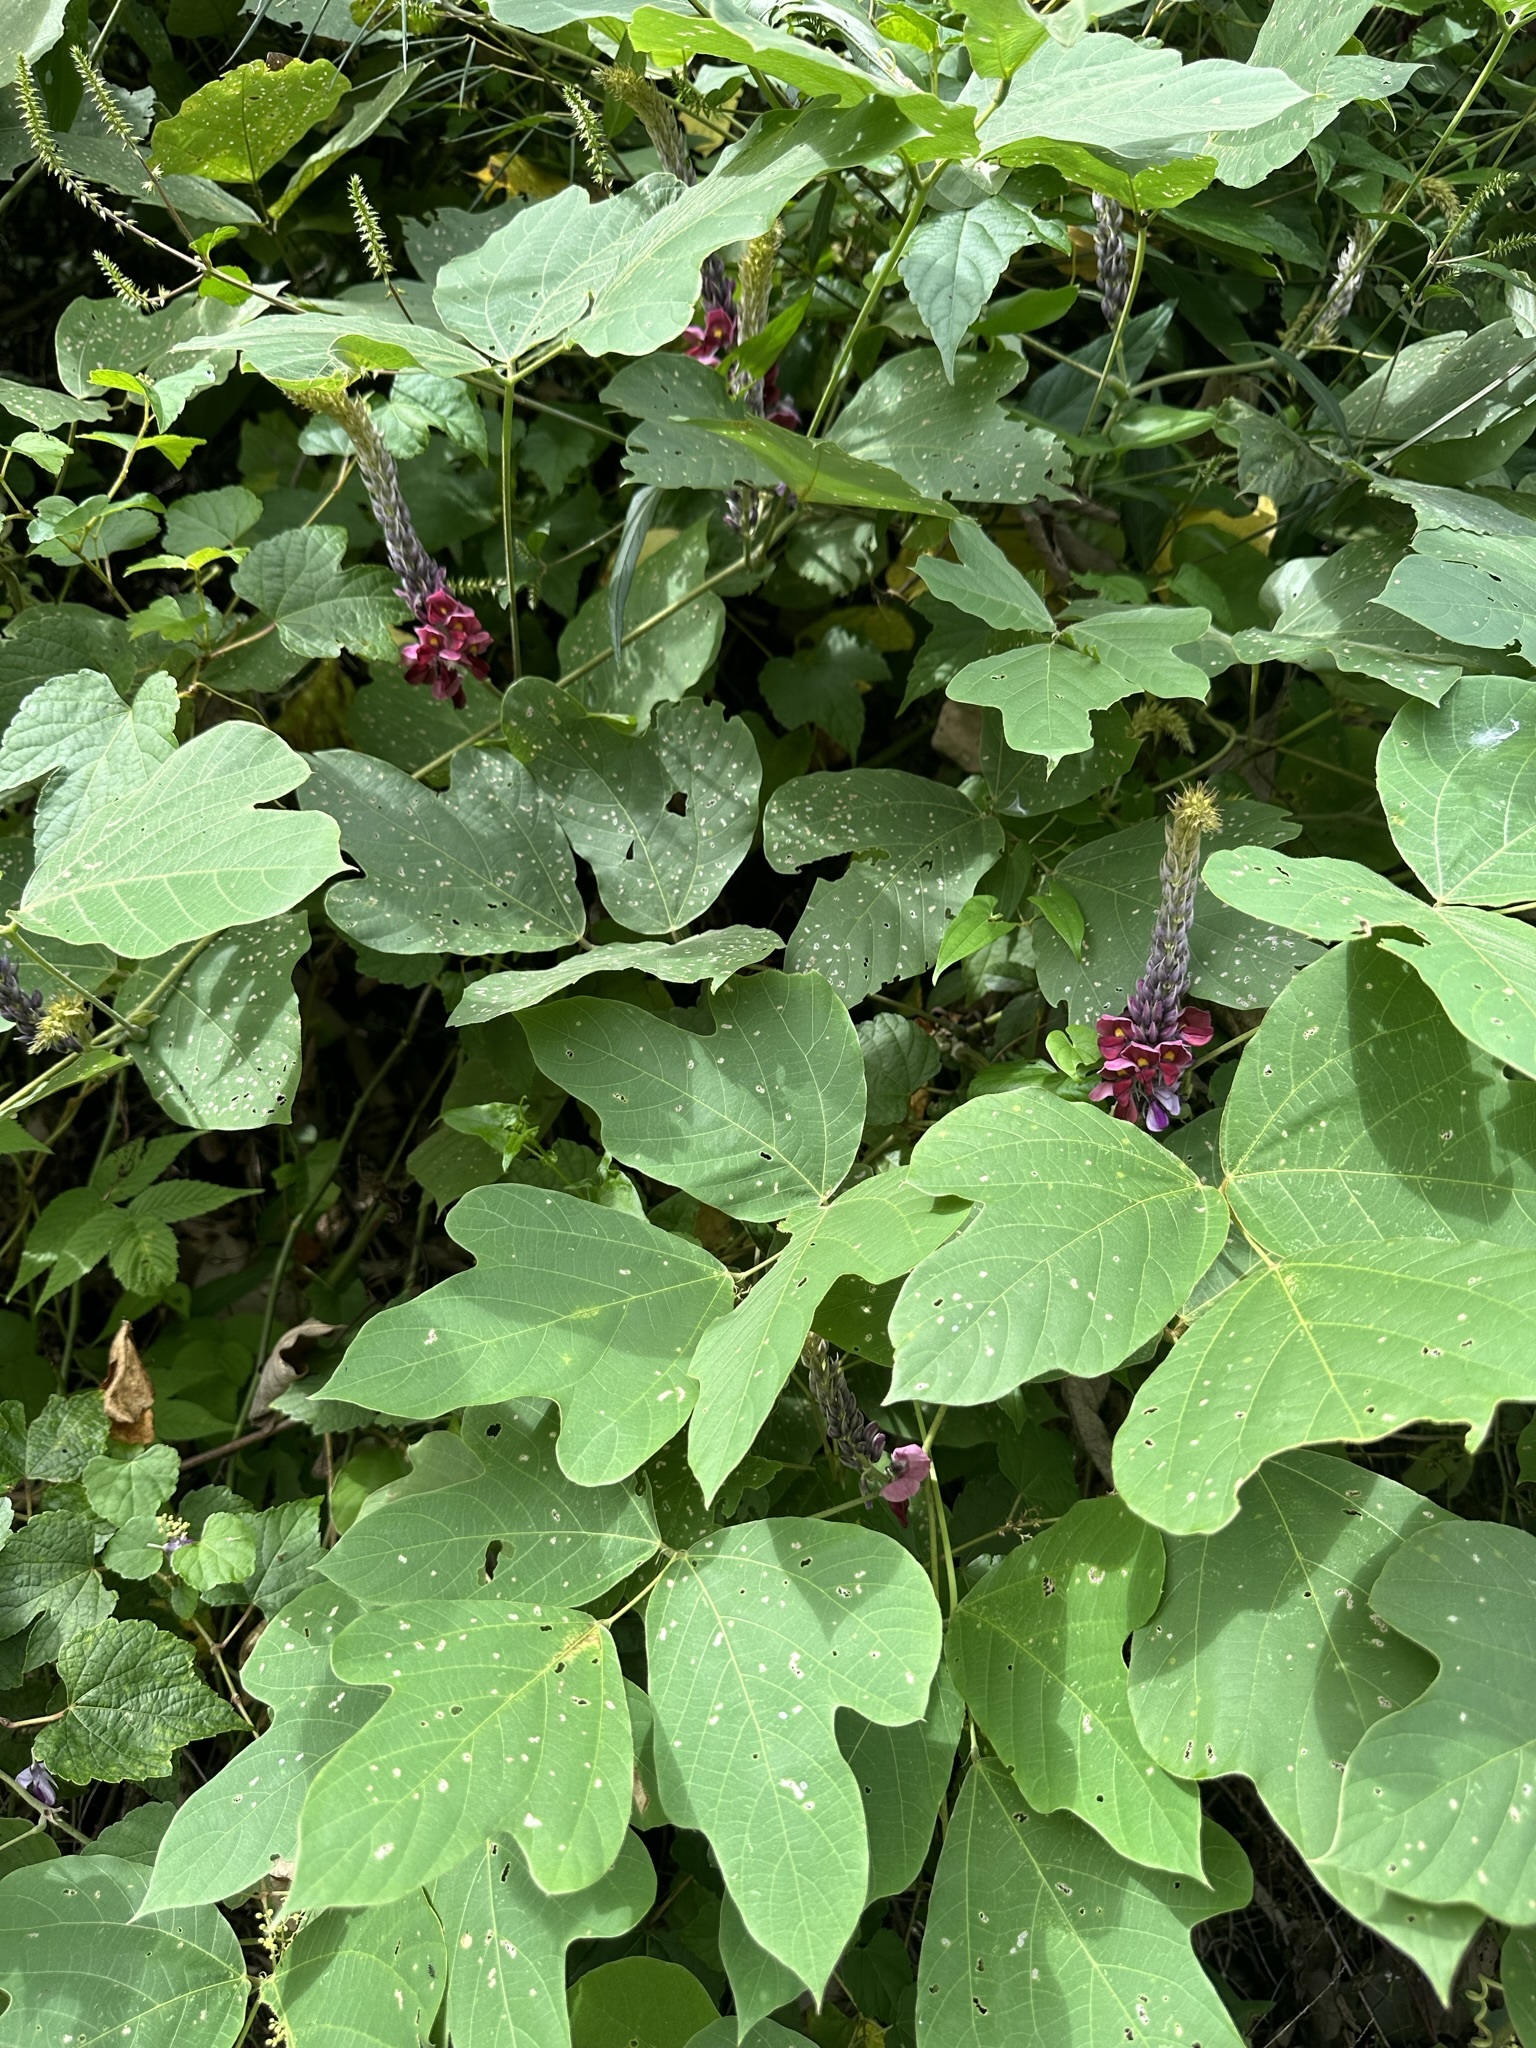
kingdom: Plantae
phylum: Tracheophyta
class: Magnoliopsida
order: Fabales
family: Fabaceae
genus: Pueraria
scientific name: Pueraria montana
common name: Kudzu
